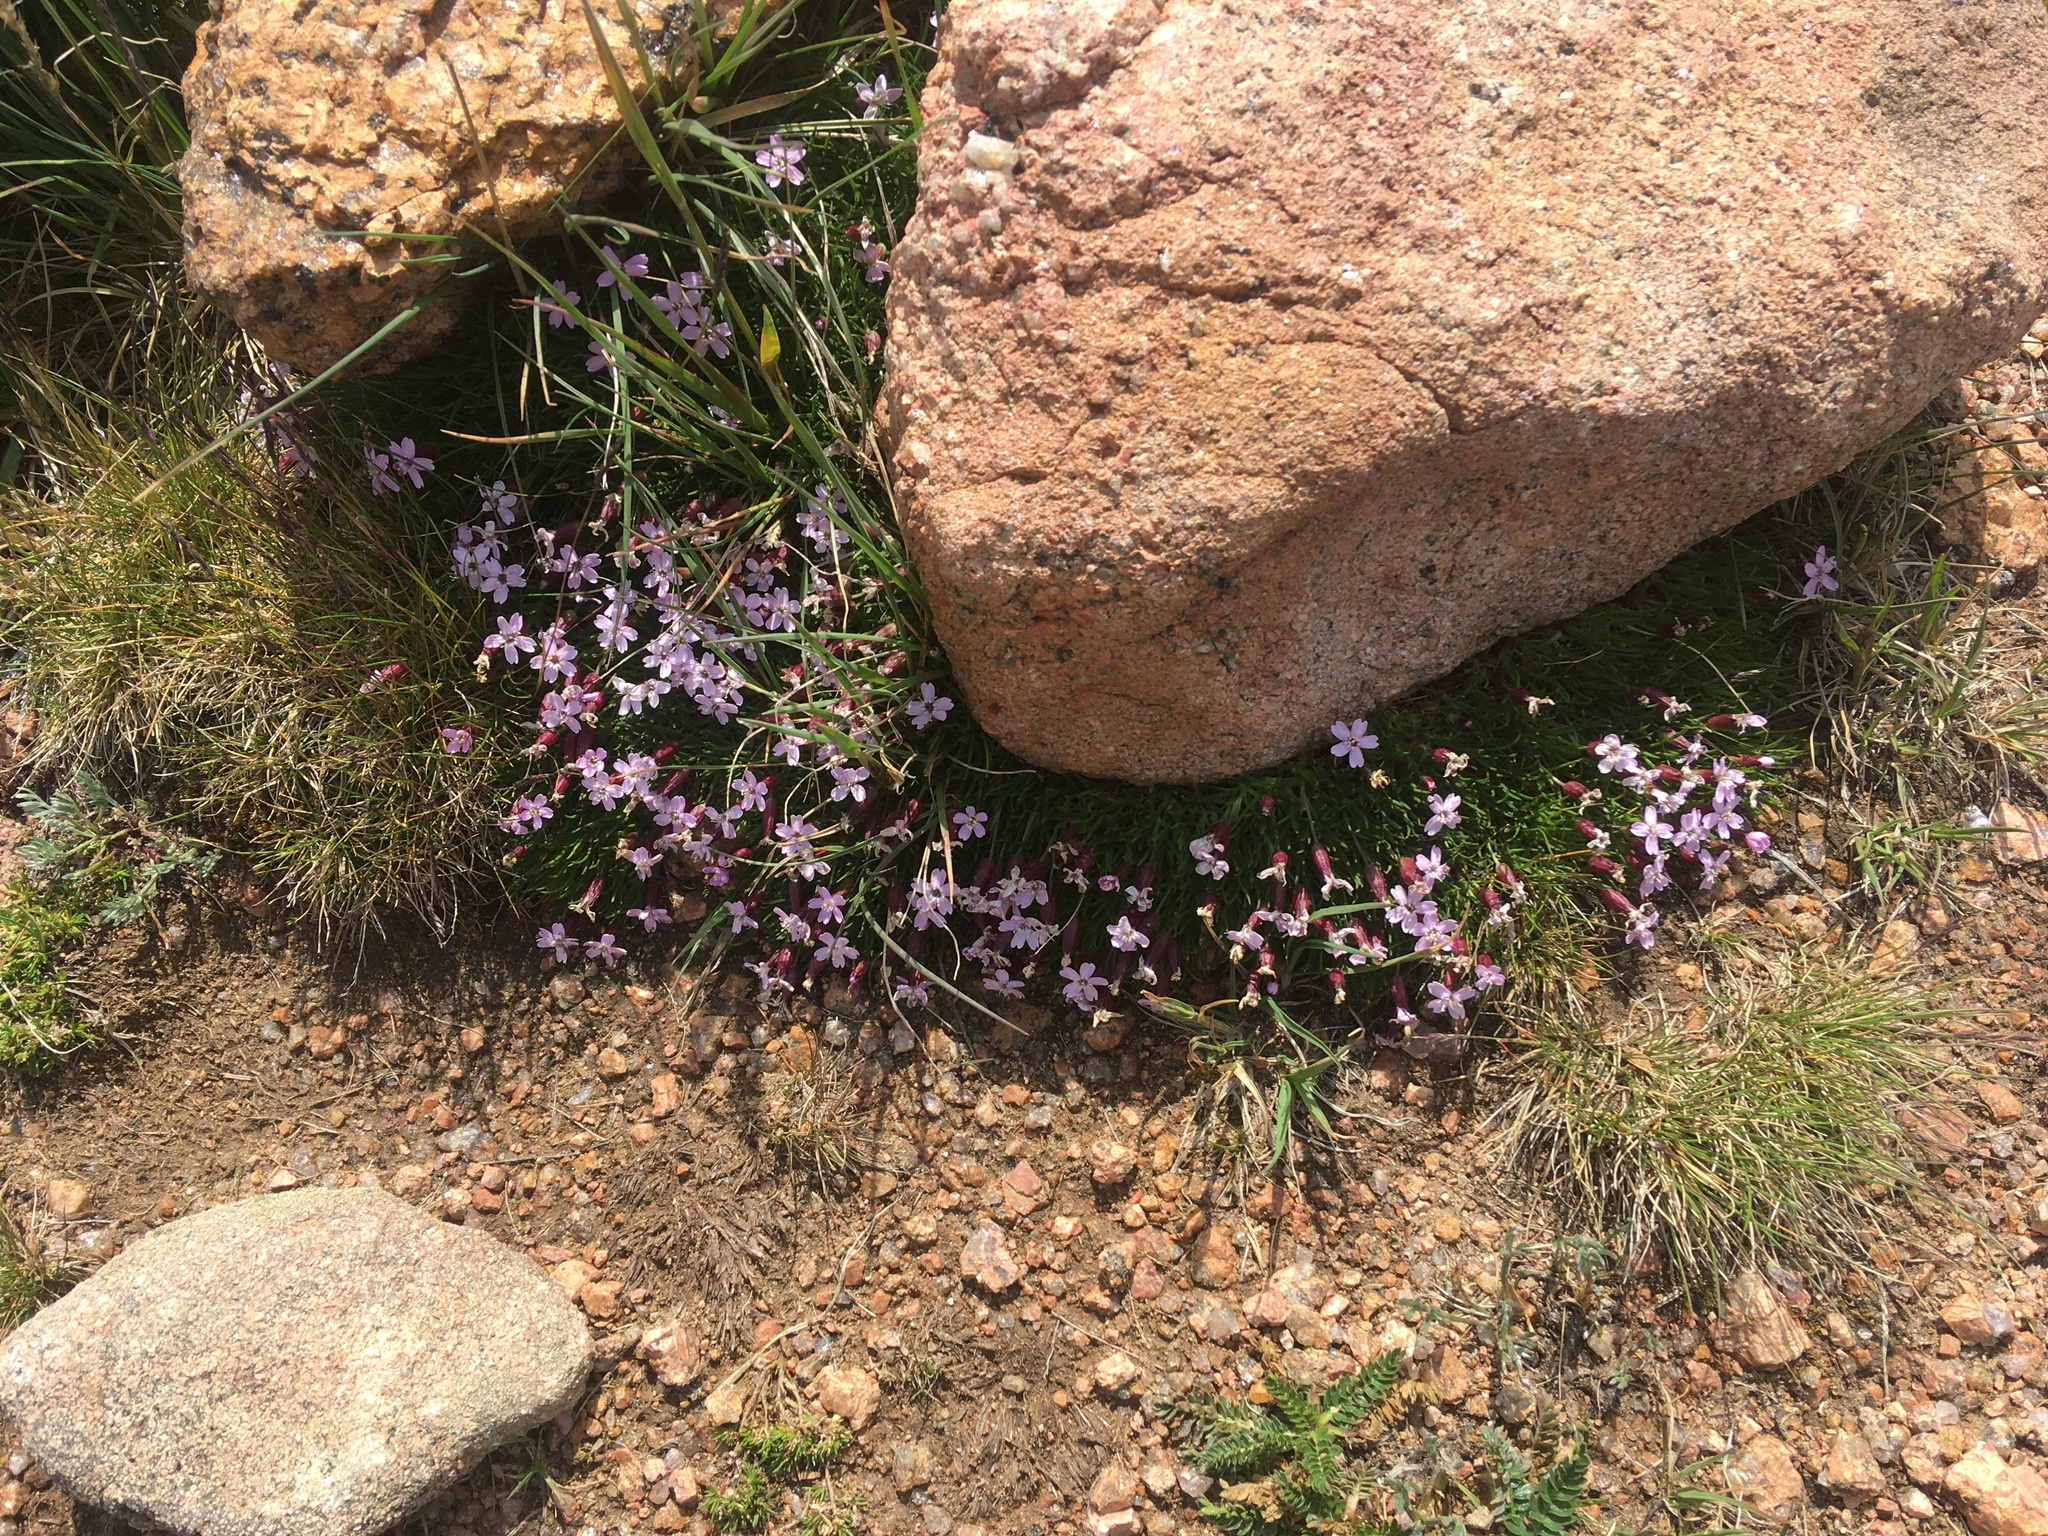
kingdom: Plantae
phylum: Tracheophyta
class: Magnoliopsida
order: Caryophyllales
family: Caryophyllaceae
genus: Silene
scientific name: Silene acaulis
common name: Moss campion
